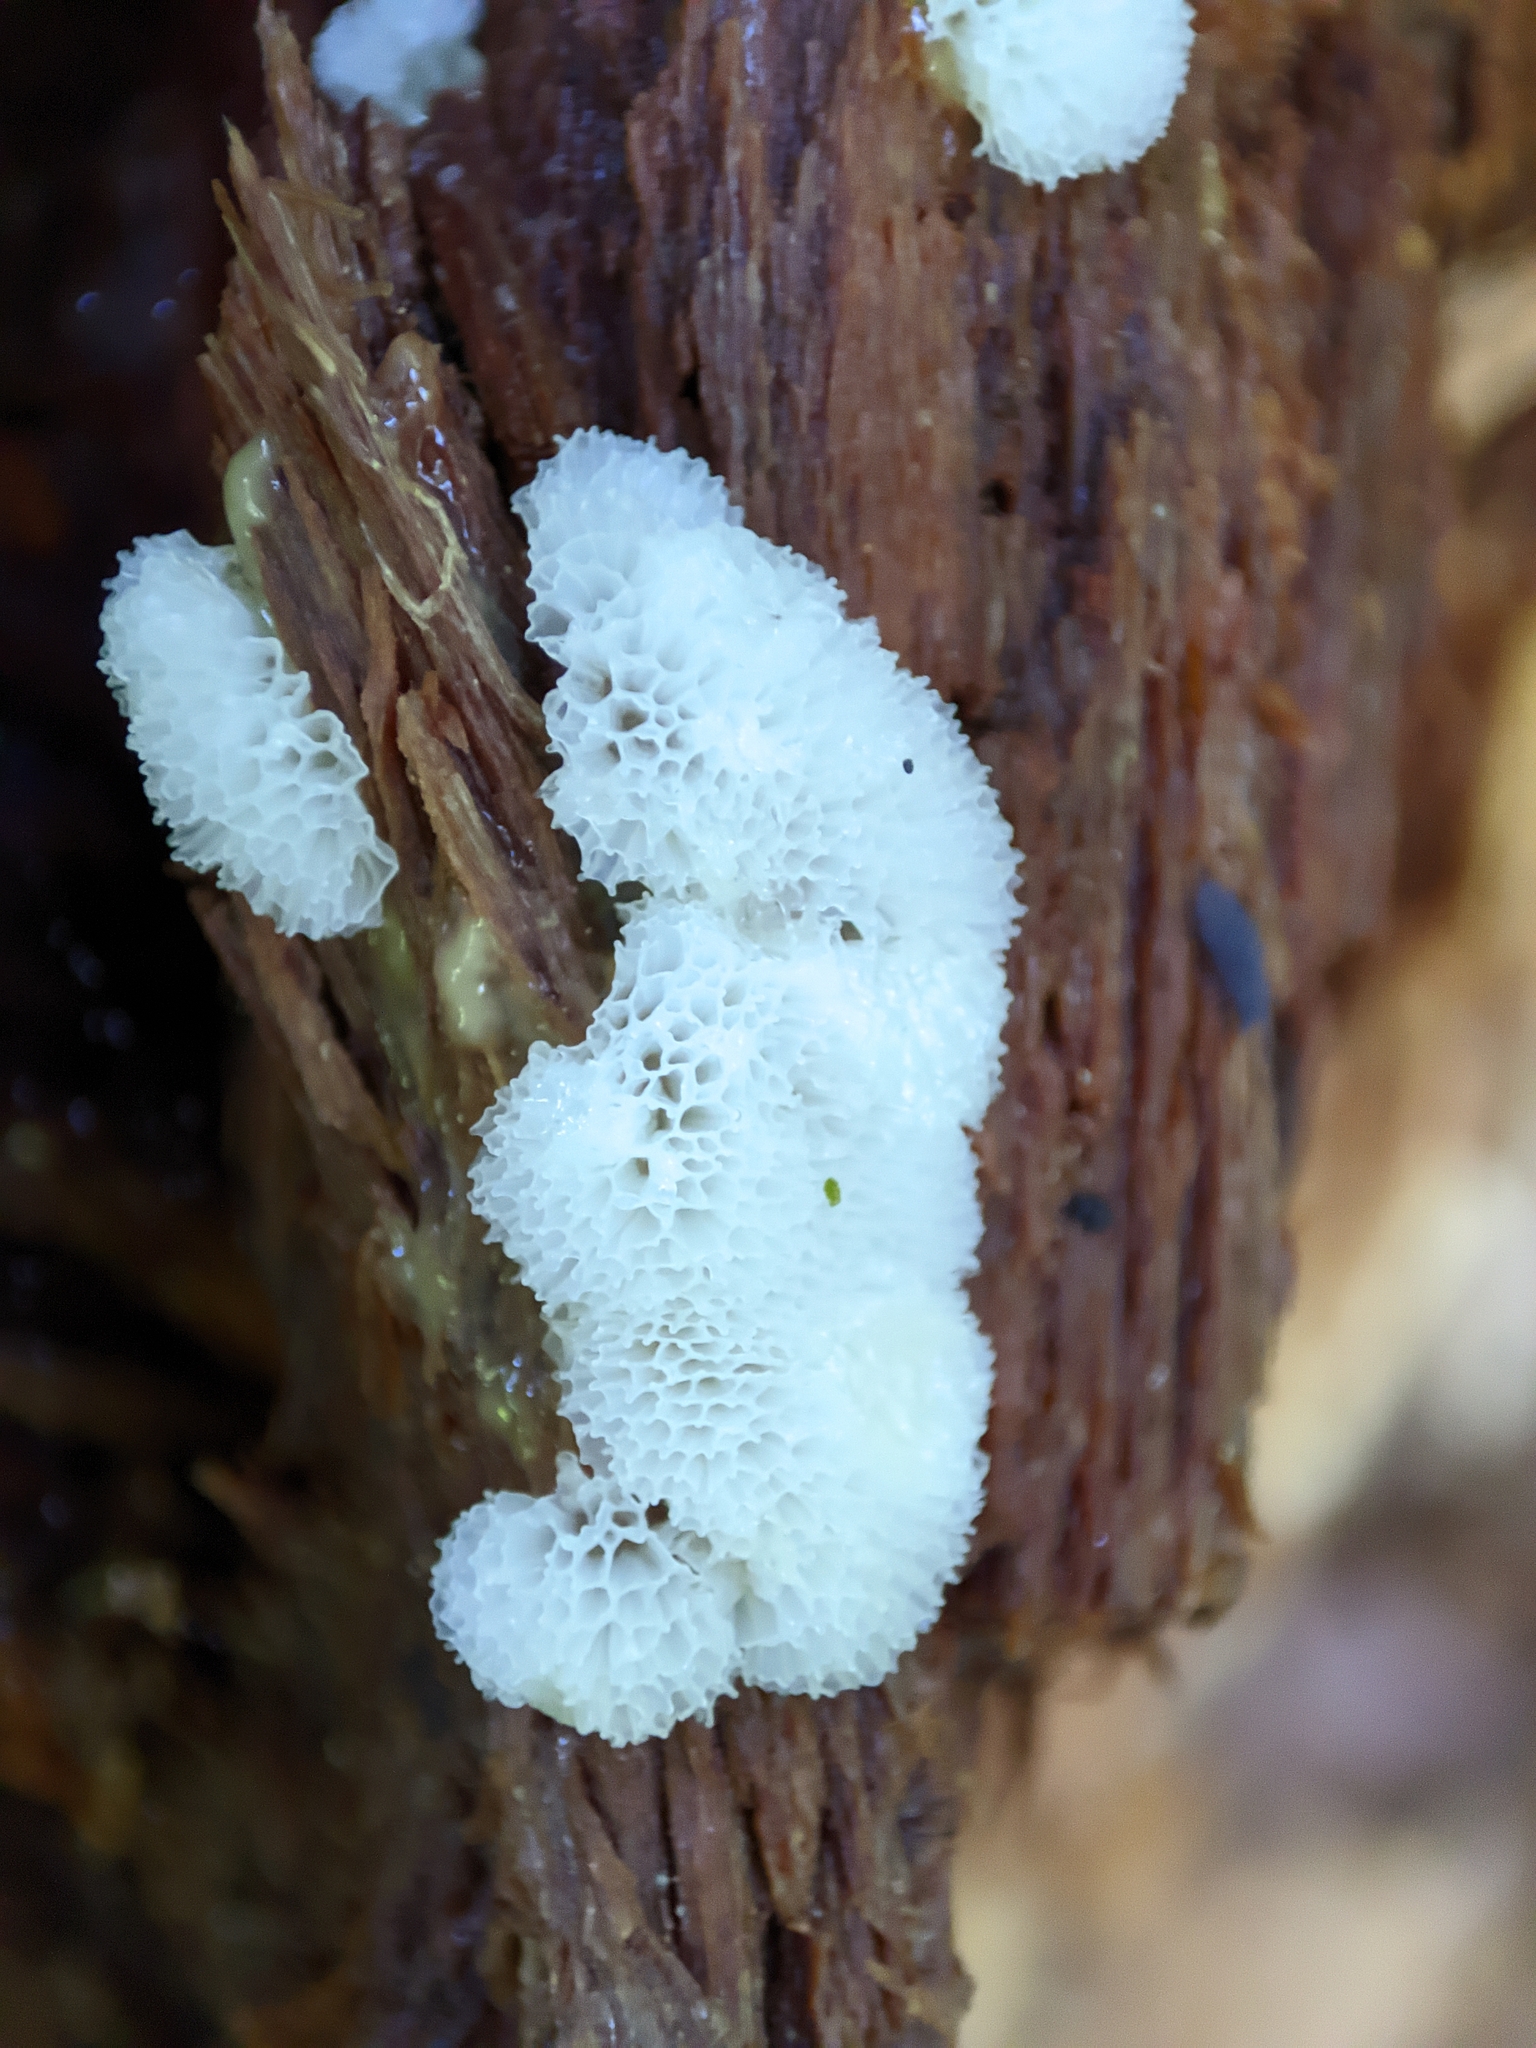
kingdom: Protozoa
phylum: Mycetozoa
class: Protosteliomycetes
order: Ceratiomyxales
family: Ceratiomyxaceae
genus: Ceratiomyxa
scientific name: Ceratiomyxa fruticulosa
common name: Honeycomb coral slime mold
